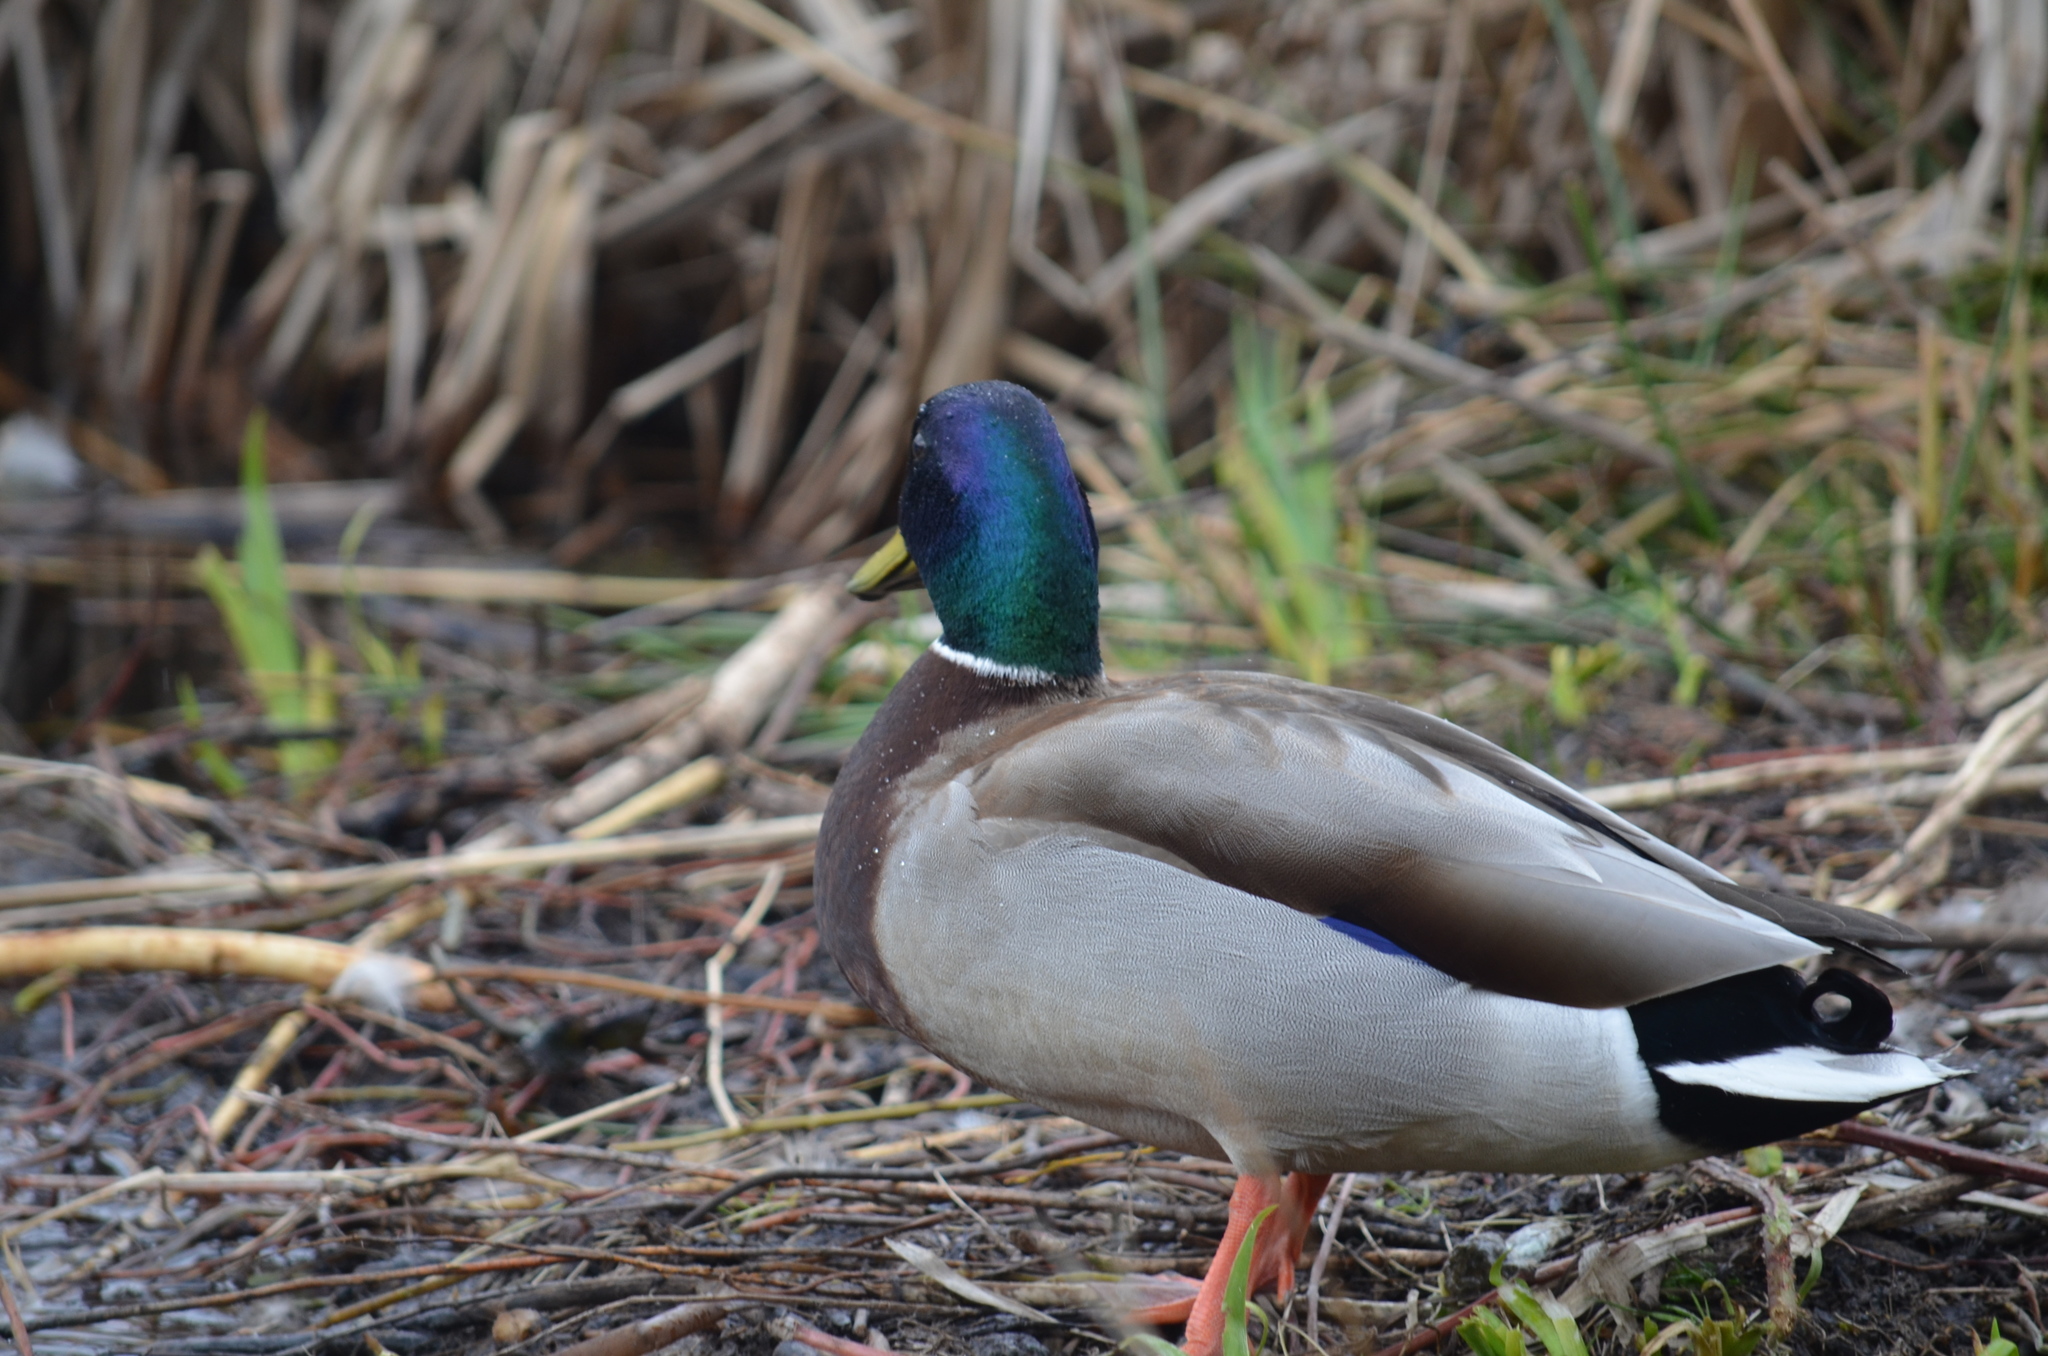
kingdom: Animalia
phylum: Chordata
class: Aves
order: Anseriformes
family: Anatidae
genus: Anas
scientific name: Anas platyrhynchos
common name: Mallard
